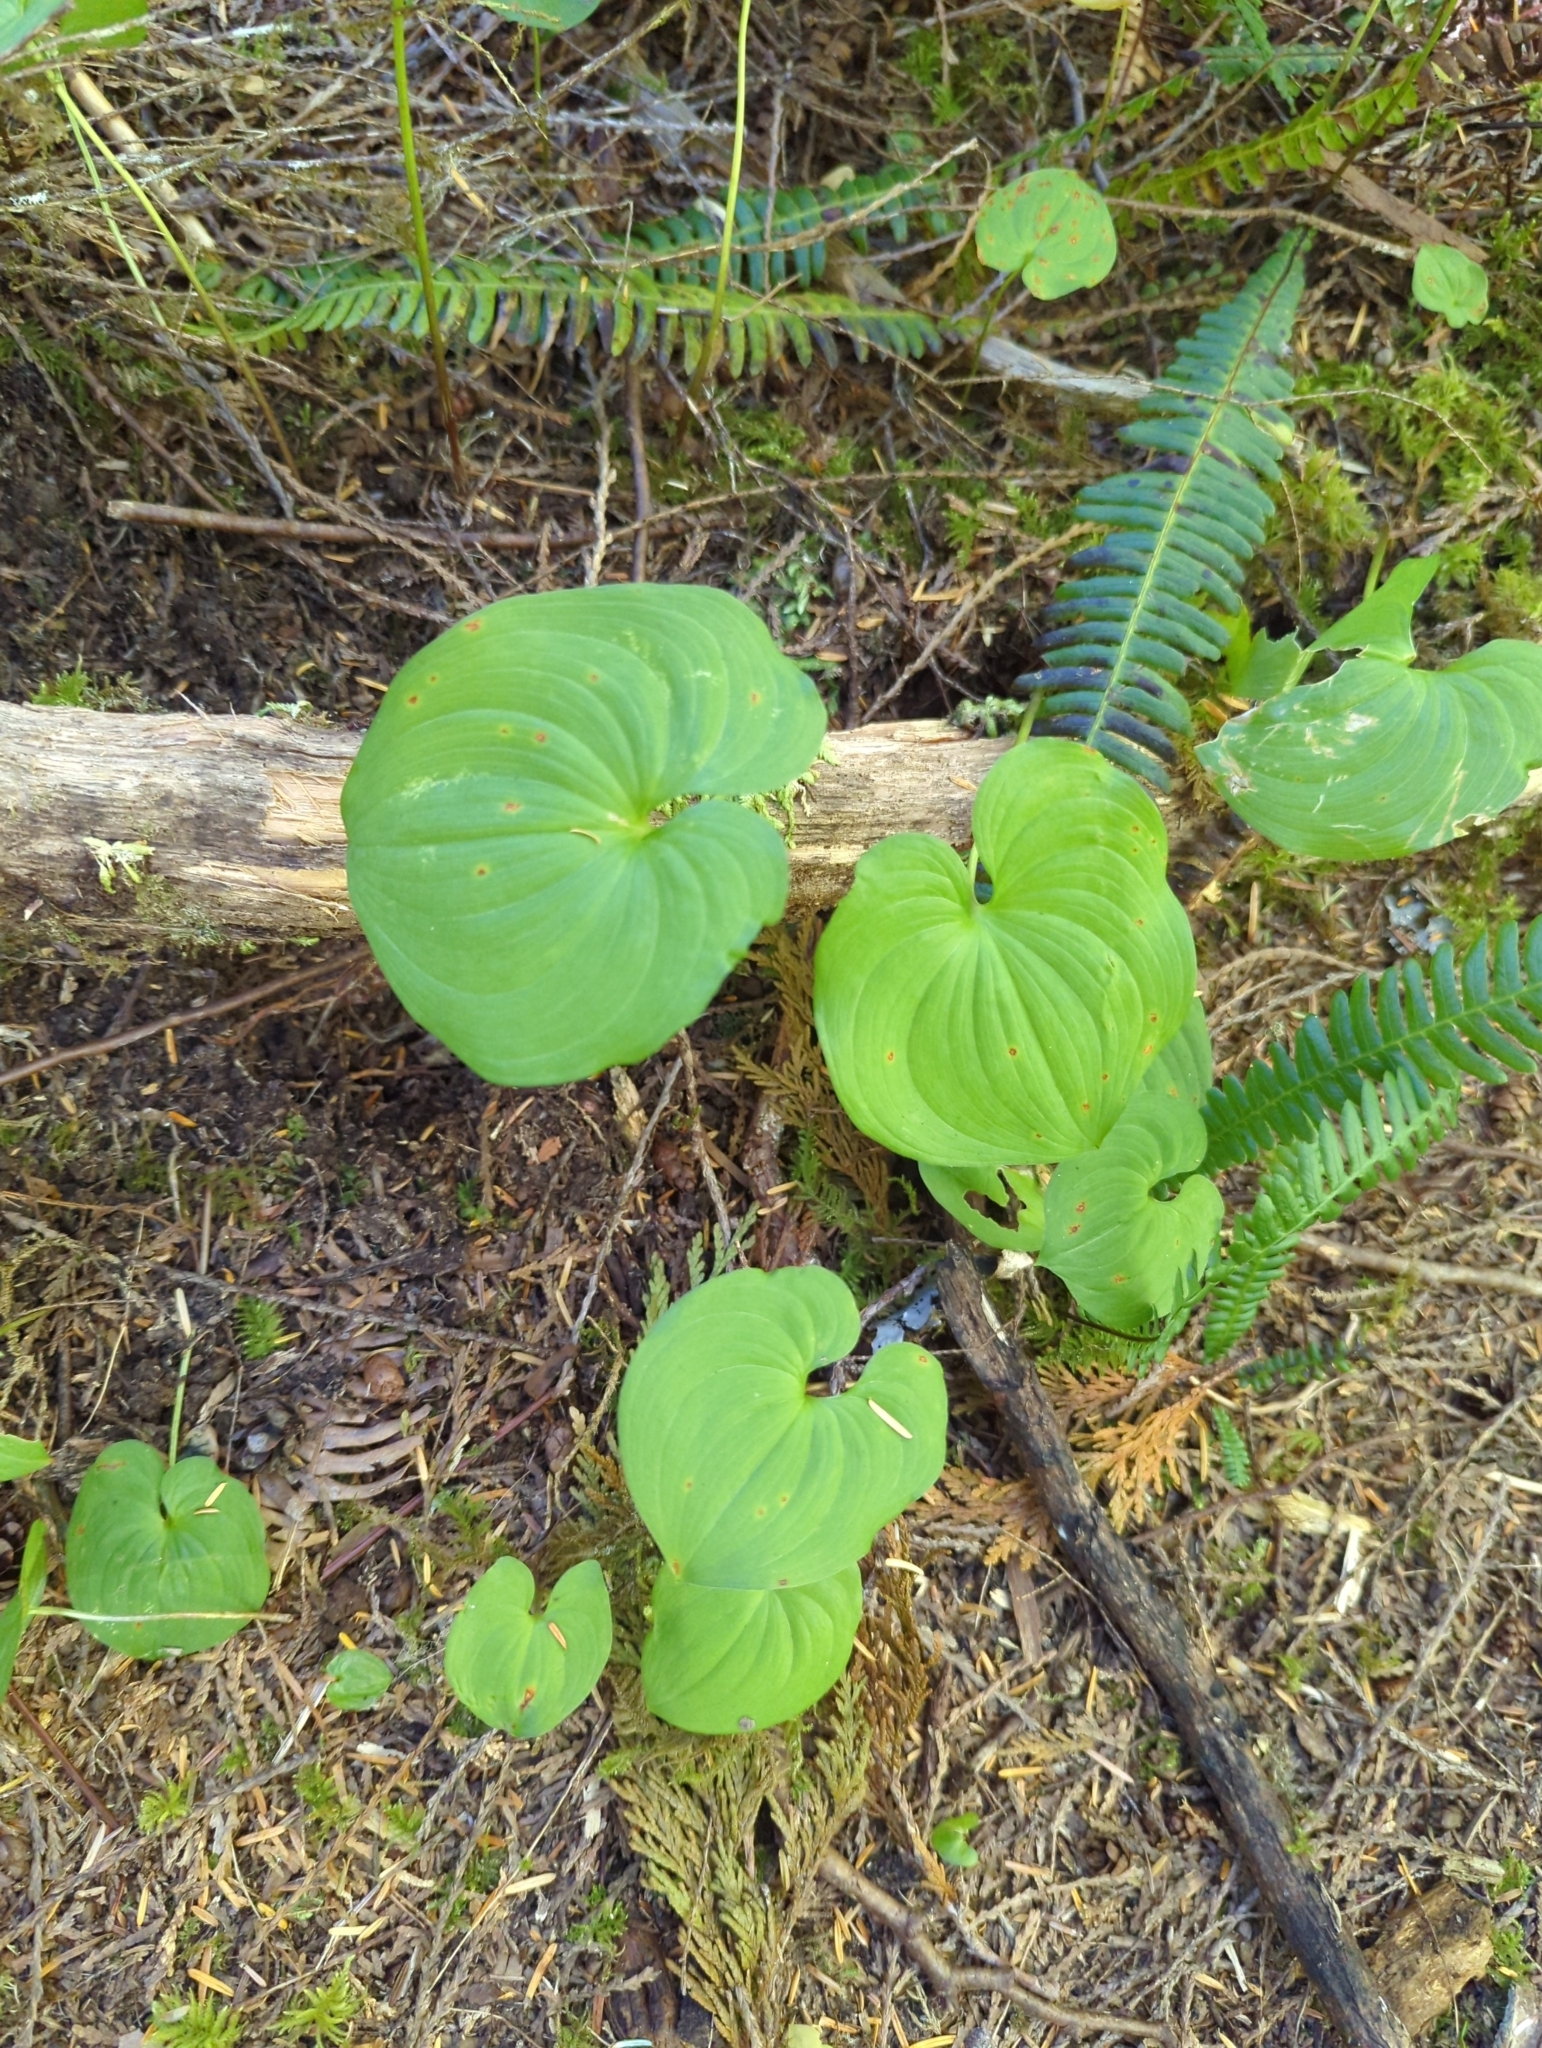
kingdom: Plantae
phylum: Tracheophyta
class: Liliopsida
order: Asparagales
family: Asparagaceae
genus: Maianthemum
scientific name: Maianthemum dilatatum
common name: False lily-of-the-valley
